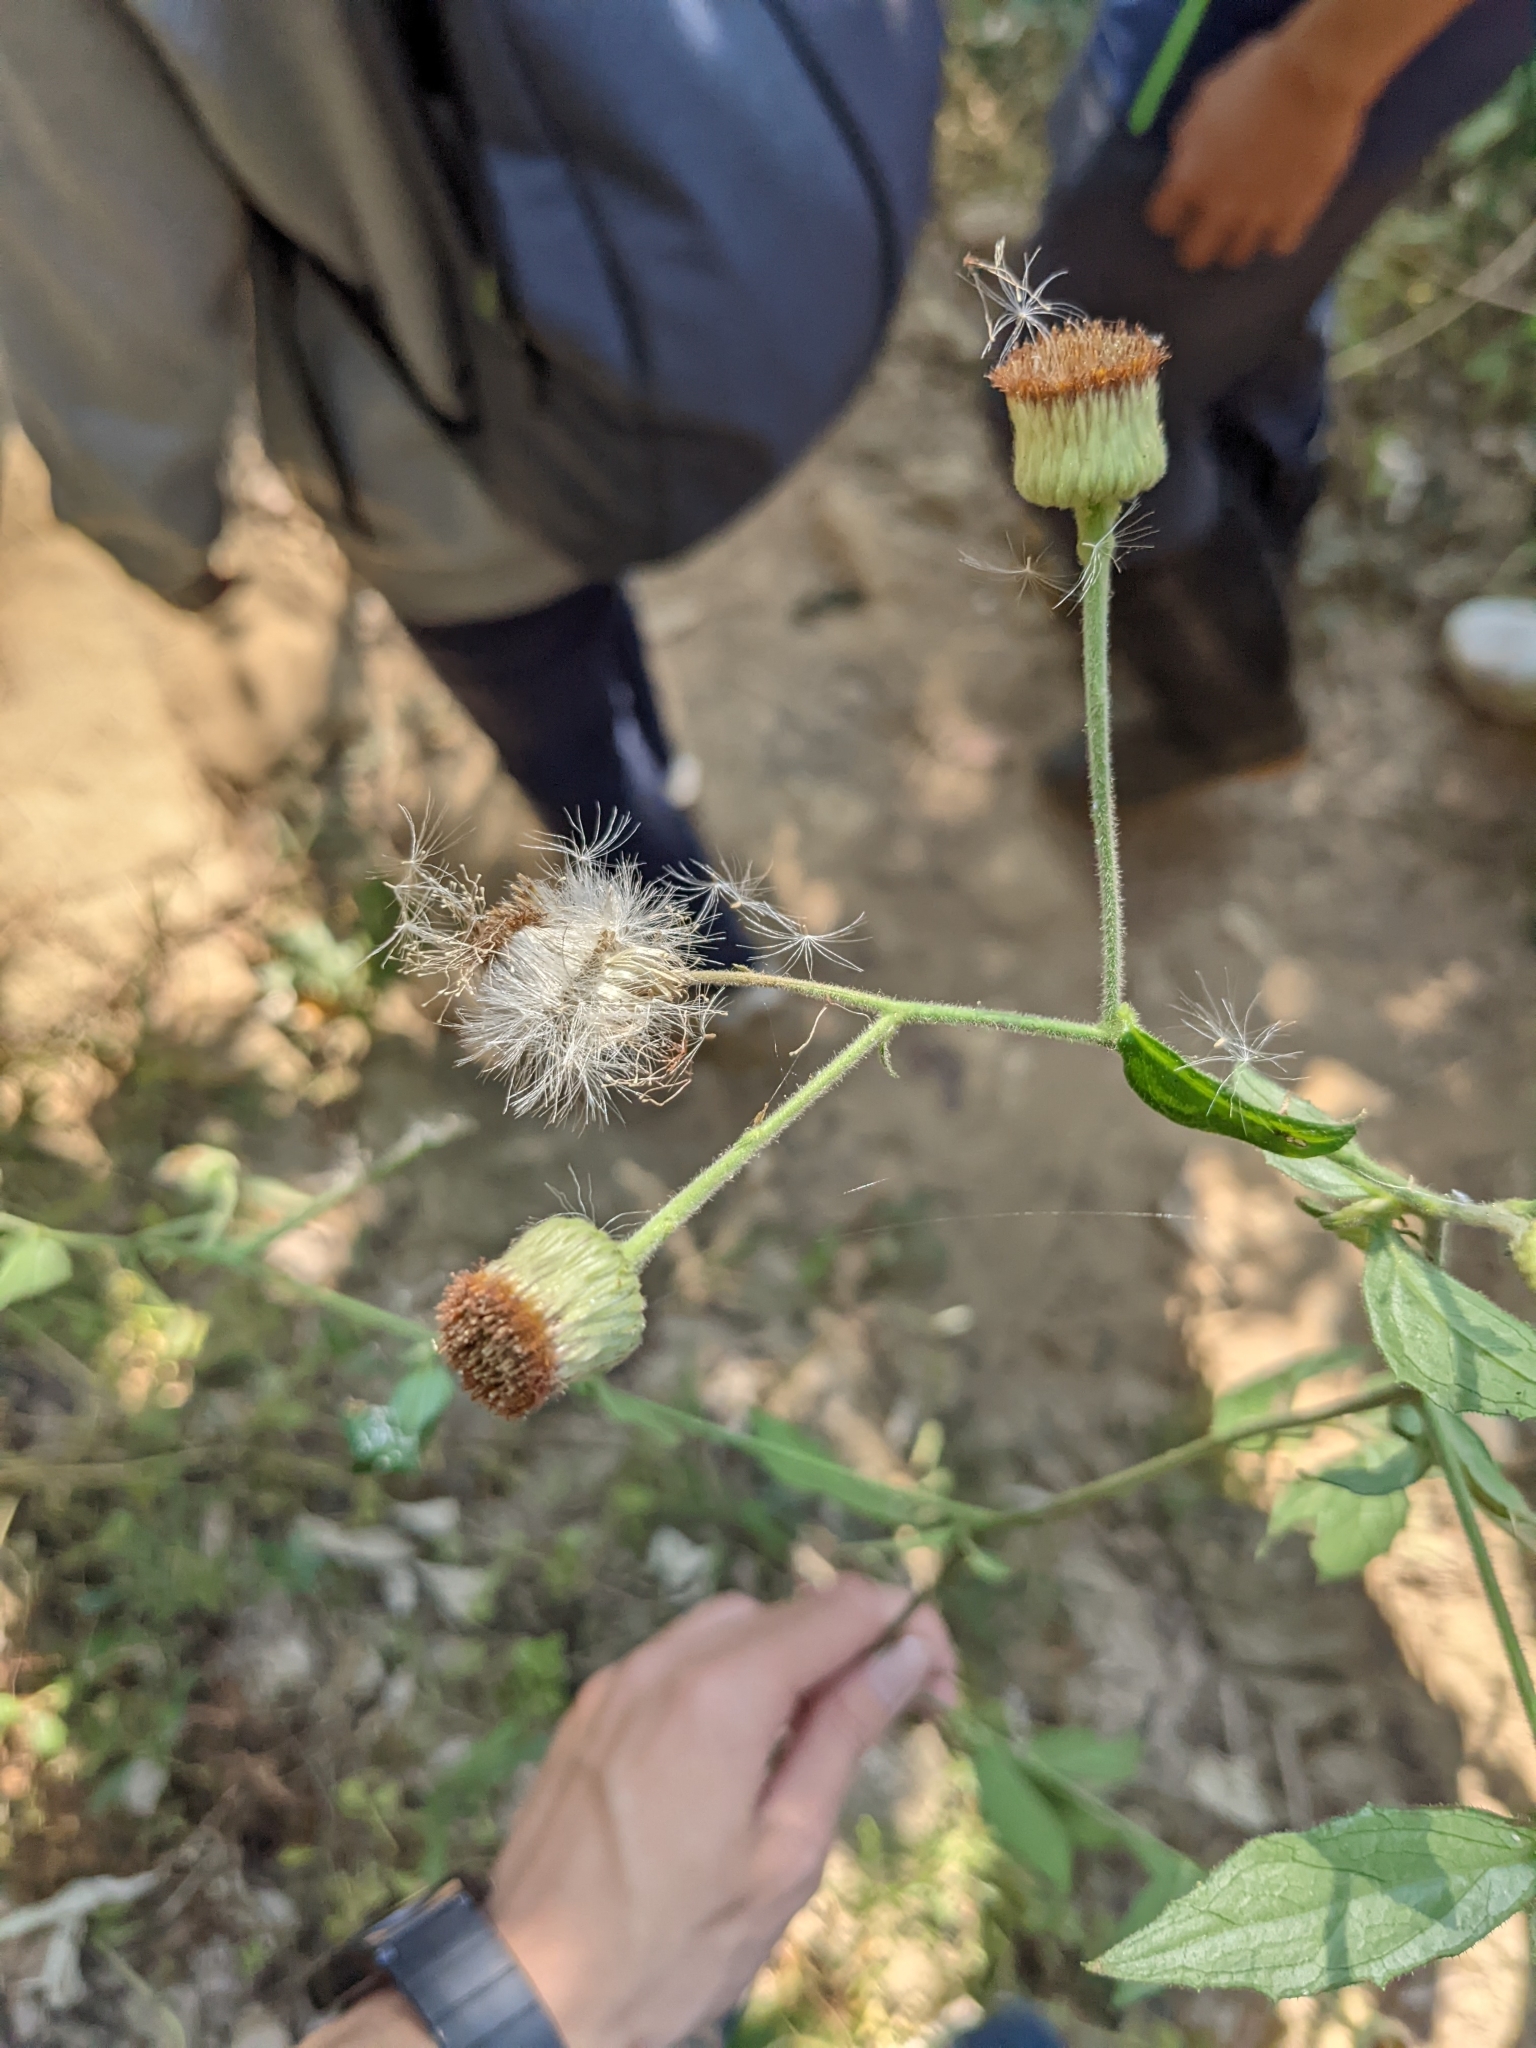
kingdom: Plantae
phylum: Tracheophyta
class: Magnoliopsida
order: Asterales
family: Asteraceae
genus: Blumea
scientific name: Blumea megacephala
